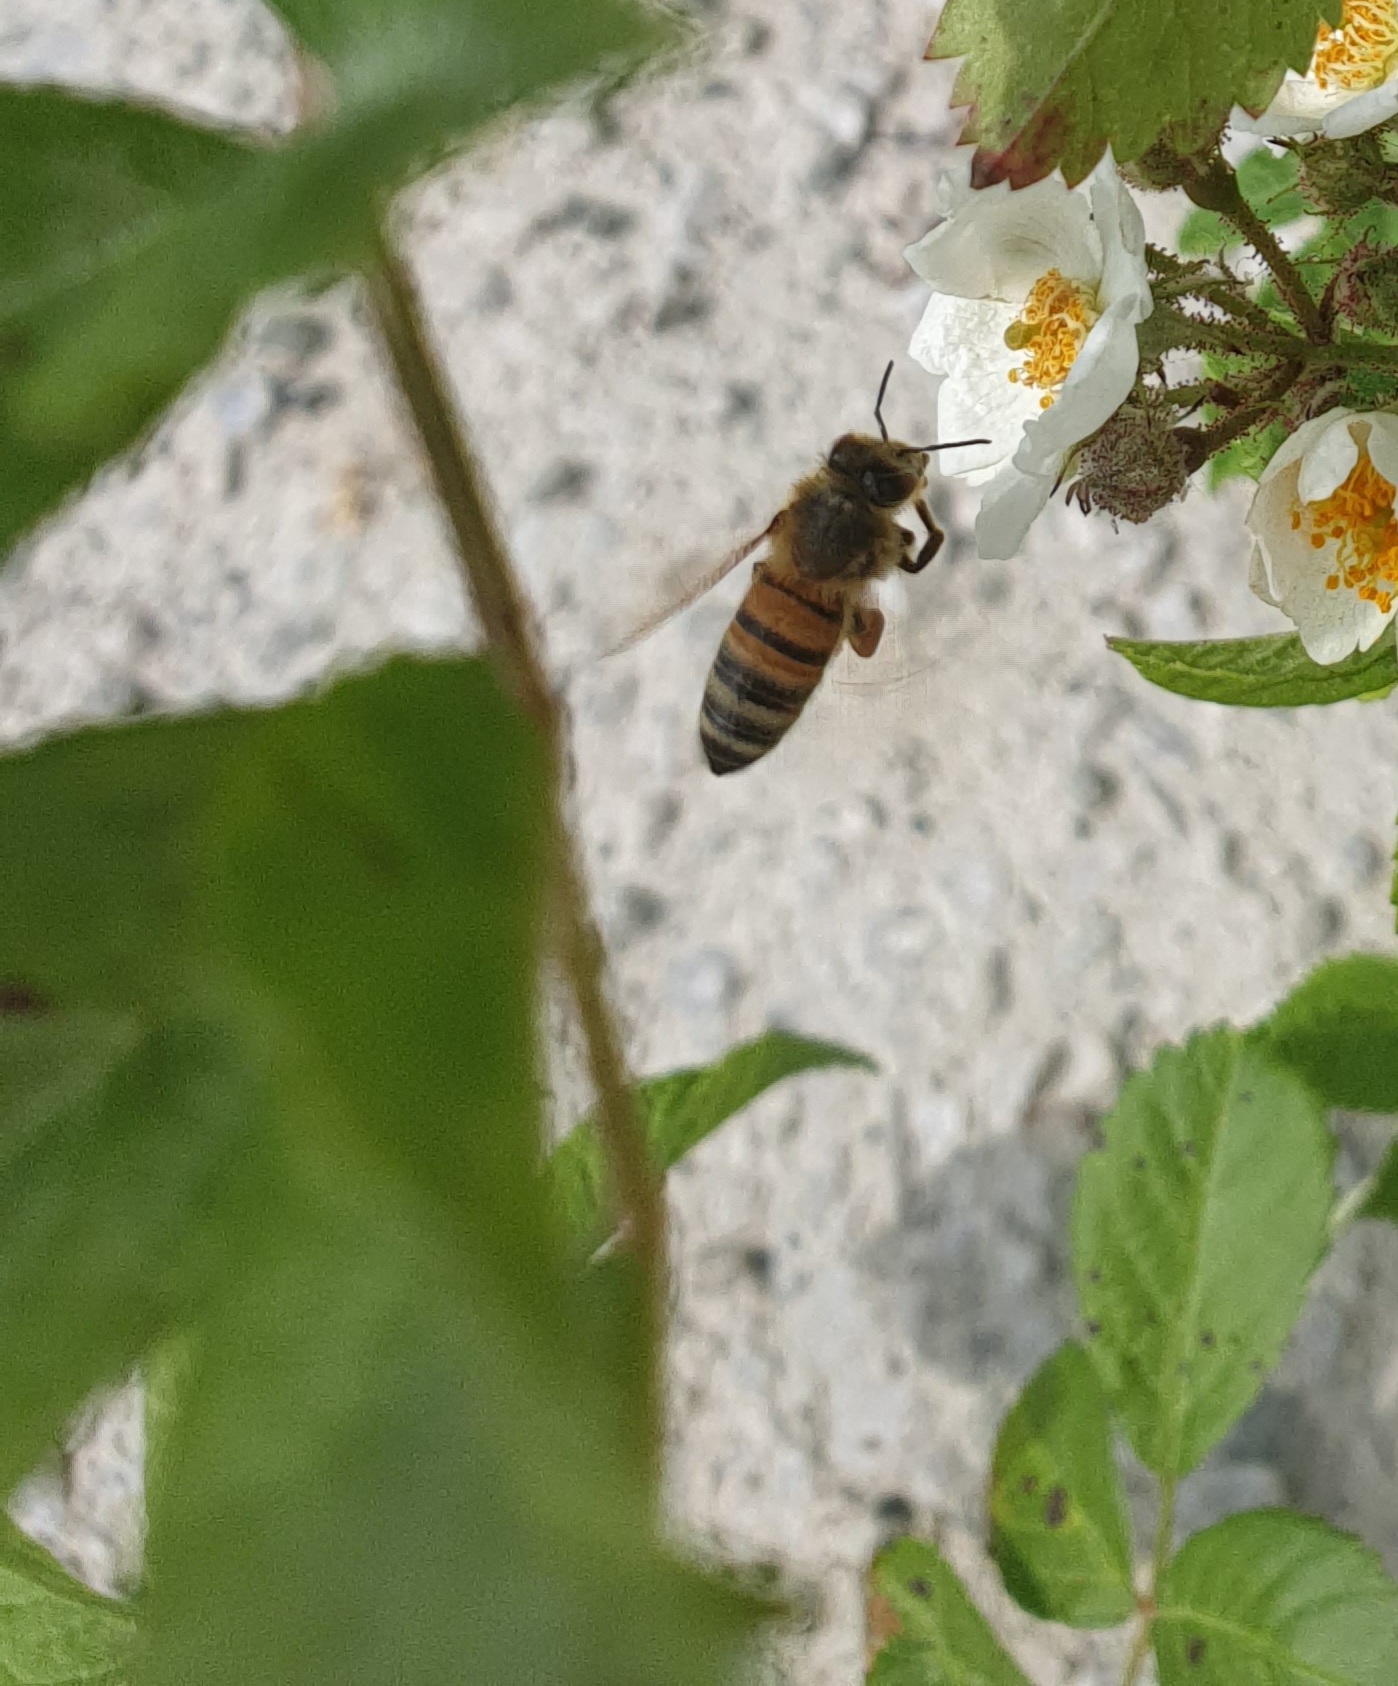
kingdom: Animalia
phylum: Arthropoda
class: Insecta
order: Hymenoptera
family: Apidae
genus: Apis
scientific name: Apis mellifera
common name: Honey bee
